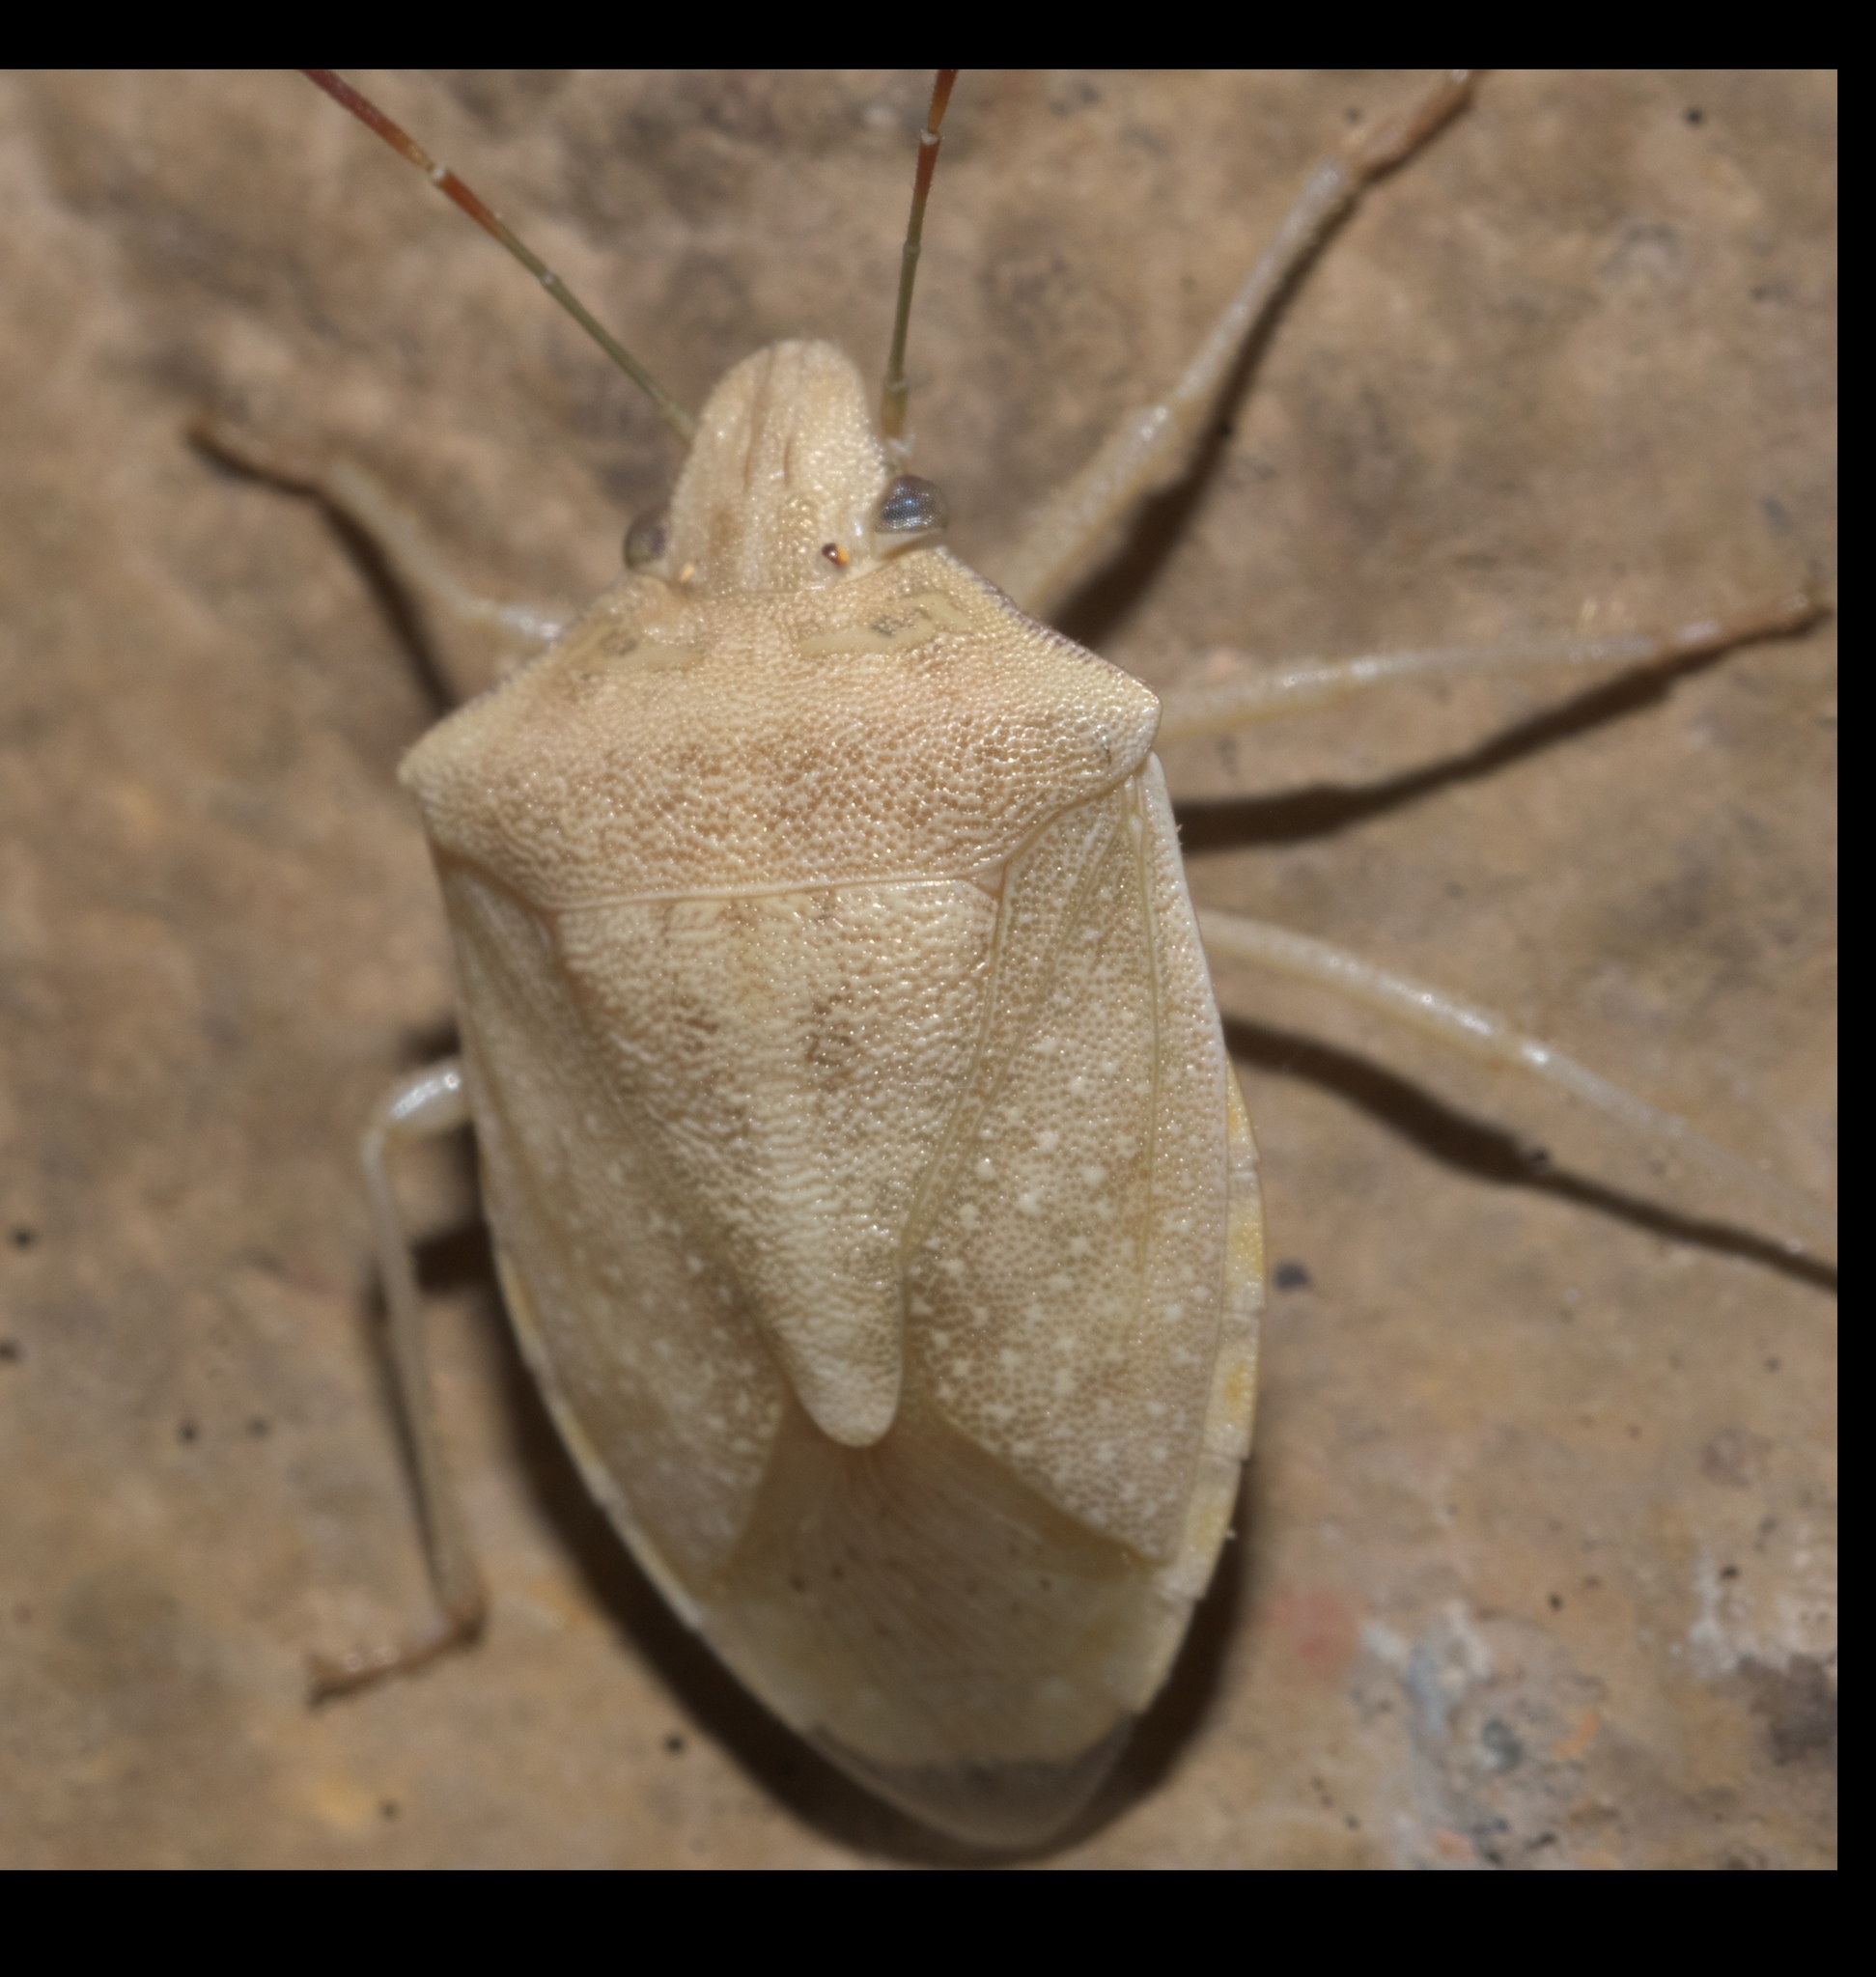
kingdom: Animalia
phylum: Arthropoda
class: Insecta
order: Hemiptera
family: Pentatomidae
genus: Thyanta
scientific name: Thyanta accerra
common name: Stink bug
